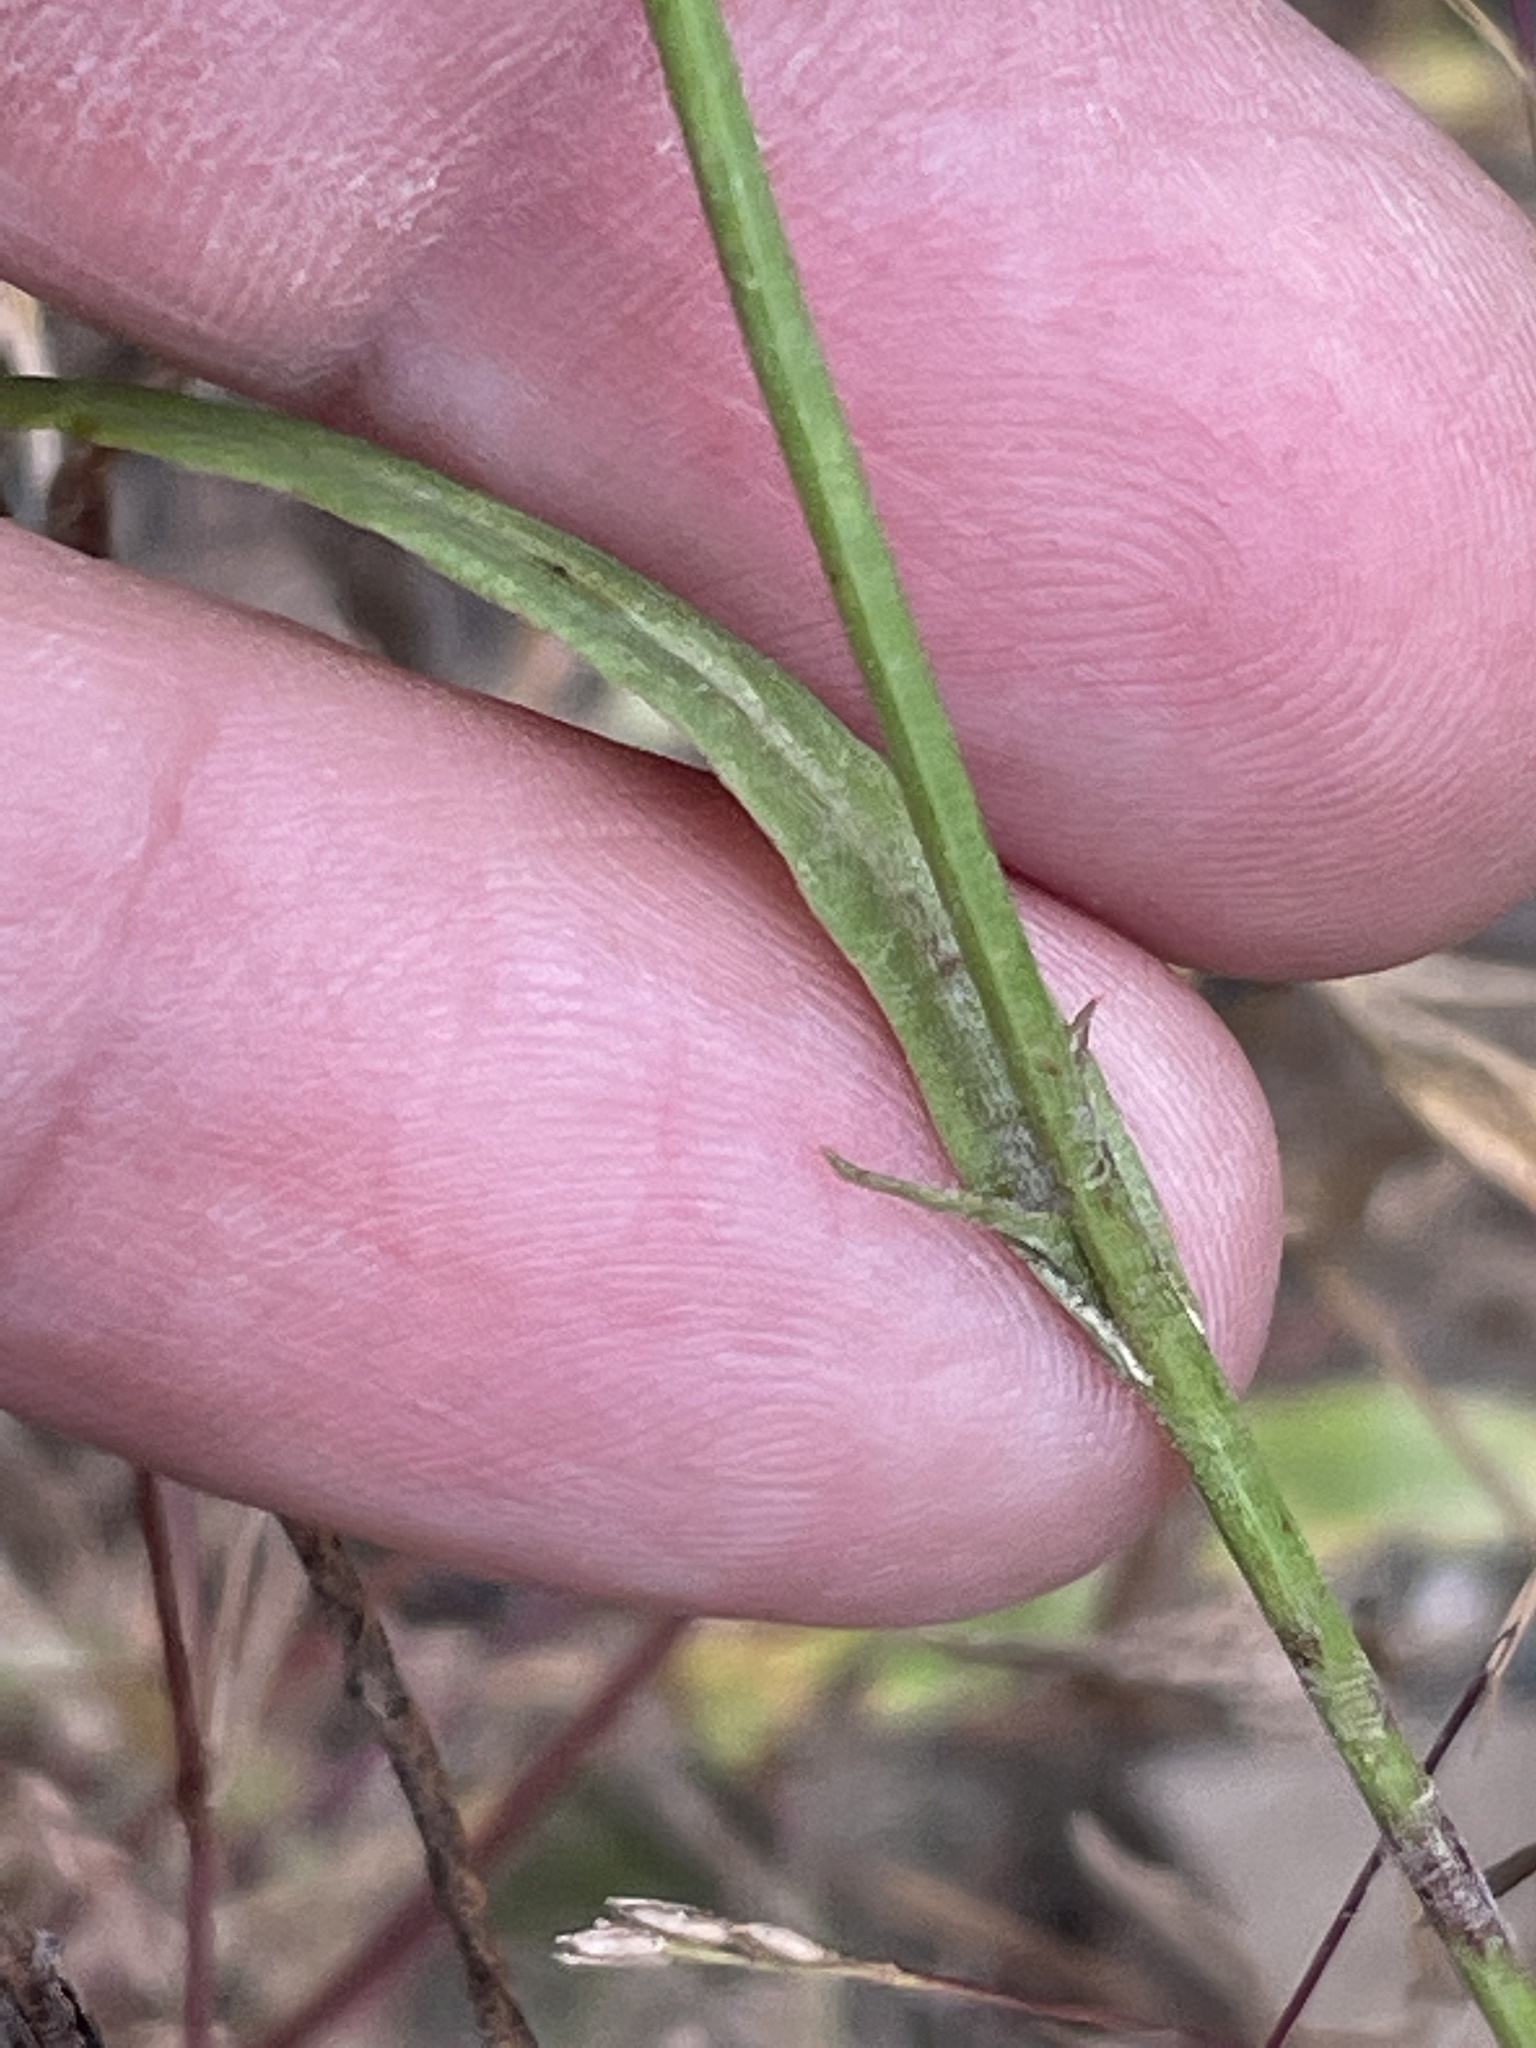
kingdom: Plantae
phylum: Tracheophyta
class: Magnoliopsida
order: Asterales
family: Asteraceae
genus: Pyrrhopappus
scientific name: Pyrrhopappus carolinianus
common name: Carolina desert-chicory
